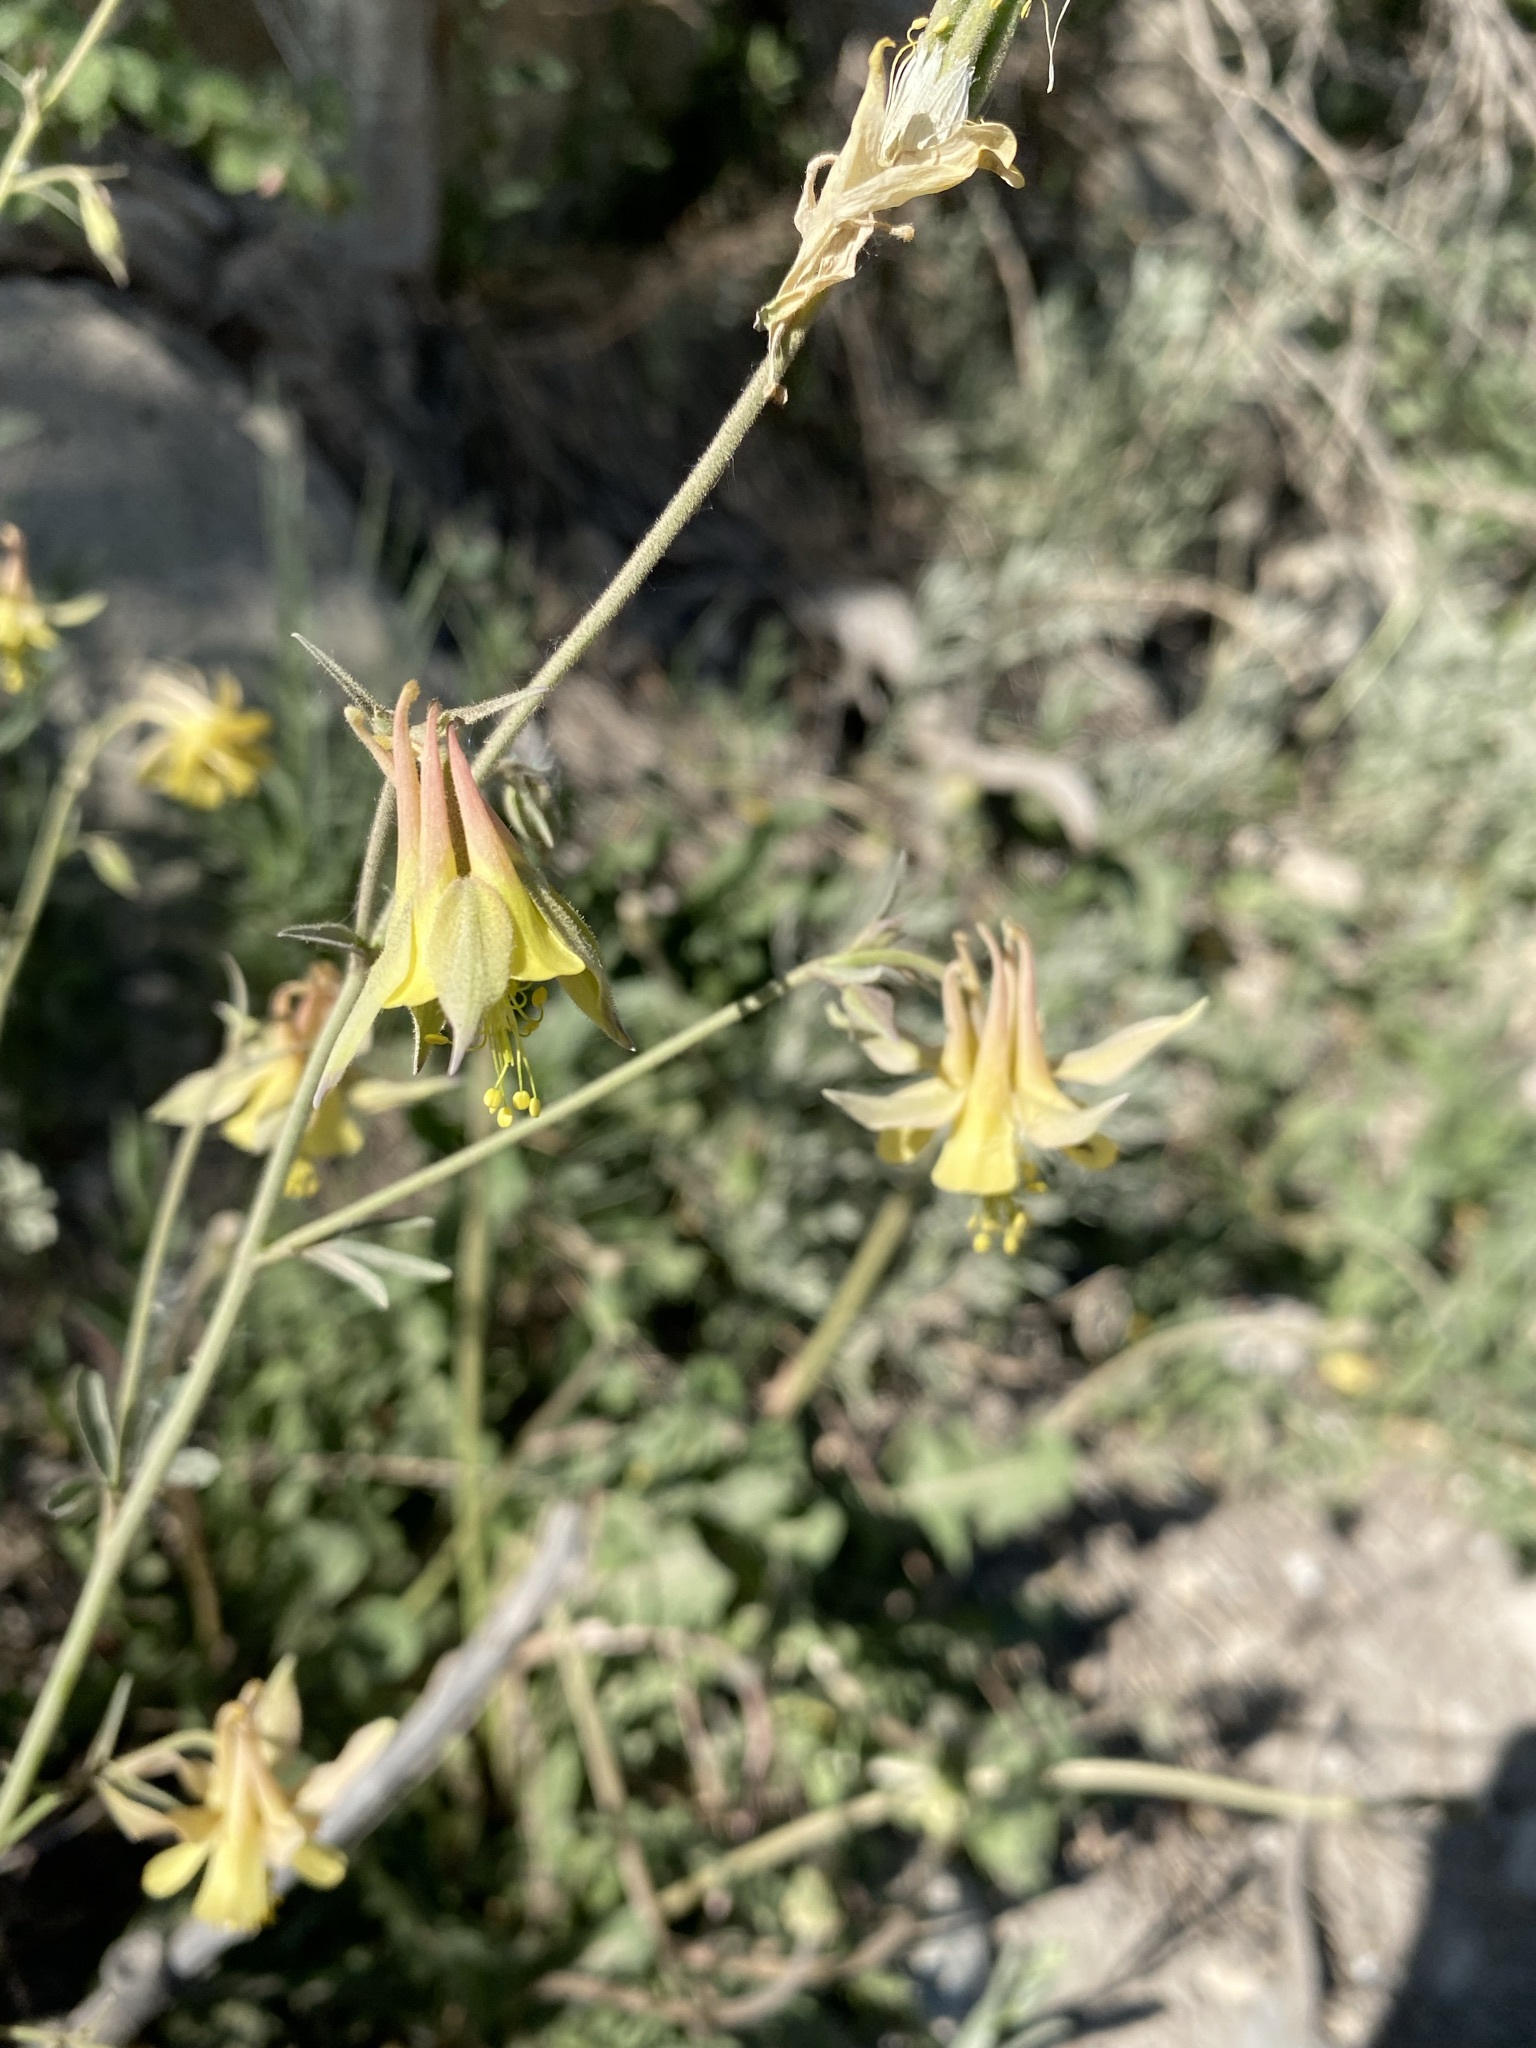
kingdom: Plantae
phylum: Tracheophyta
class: Magnoliopsida
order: Ranunculales
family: Ranunculaceae
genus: Aquilegia
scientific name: Aquilegia flavescens
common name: Yellow columbine
